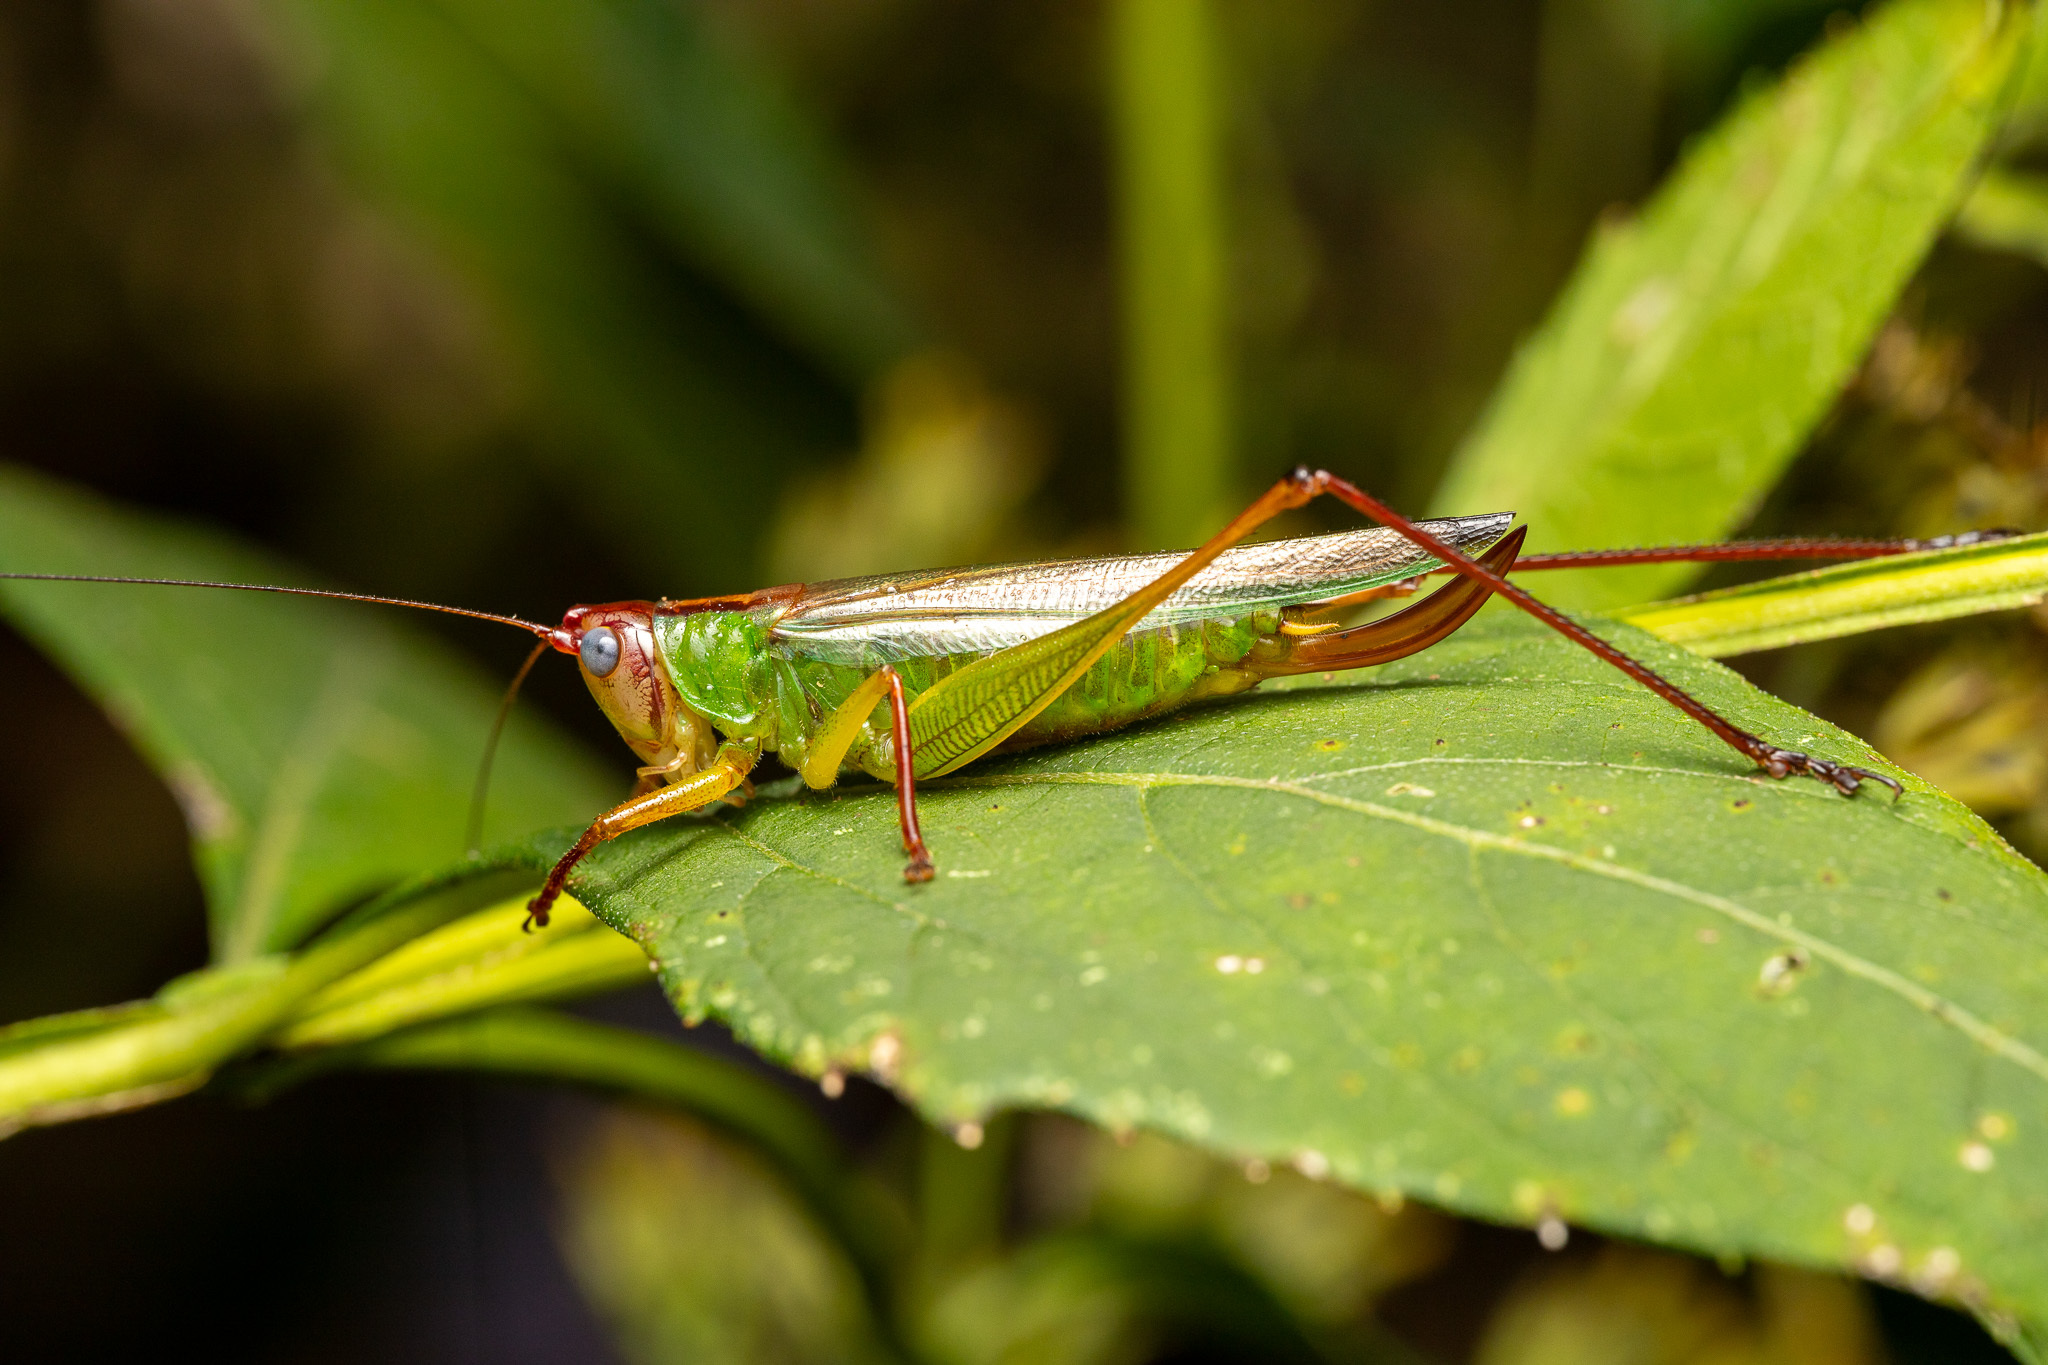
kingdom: Animalia
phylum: Arthropoda
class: Insecta
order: Orthoptera
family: Tettigoniidae
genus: Orchelimum
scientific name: Orchelimum pulchellum
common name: Handsome meadow katydid
